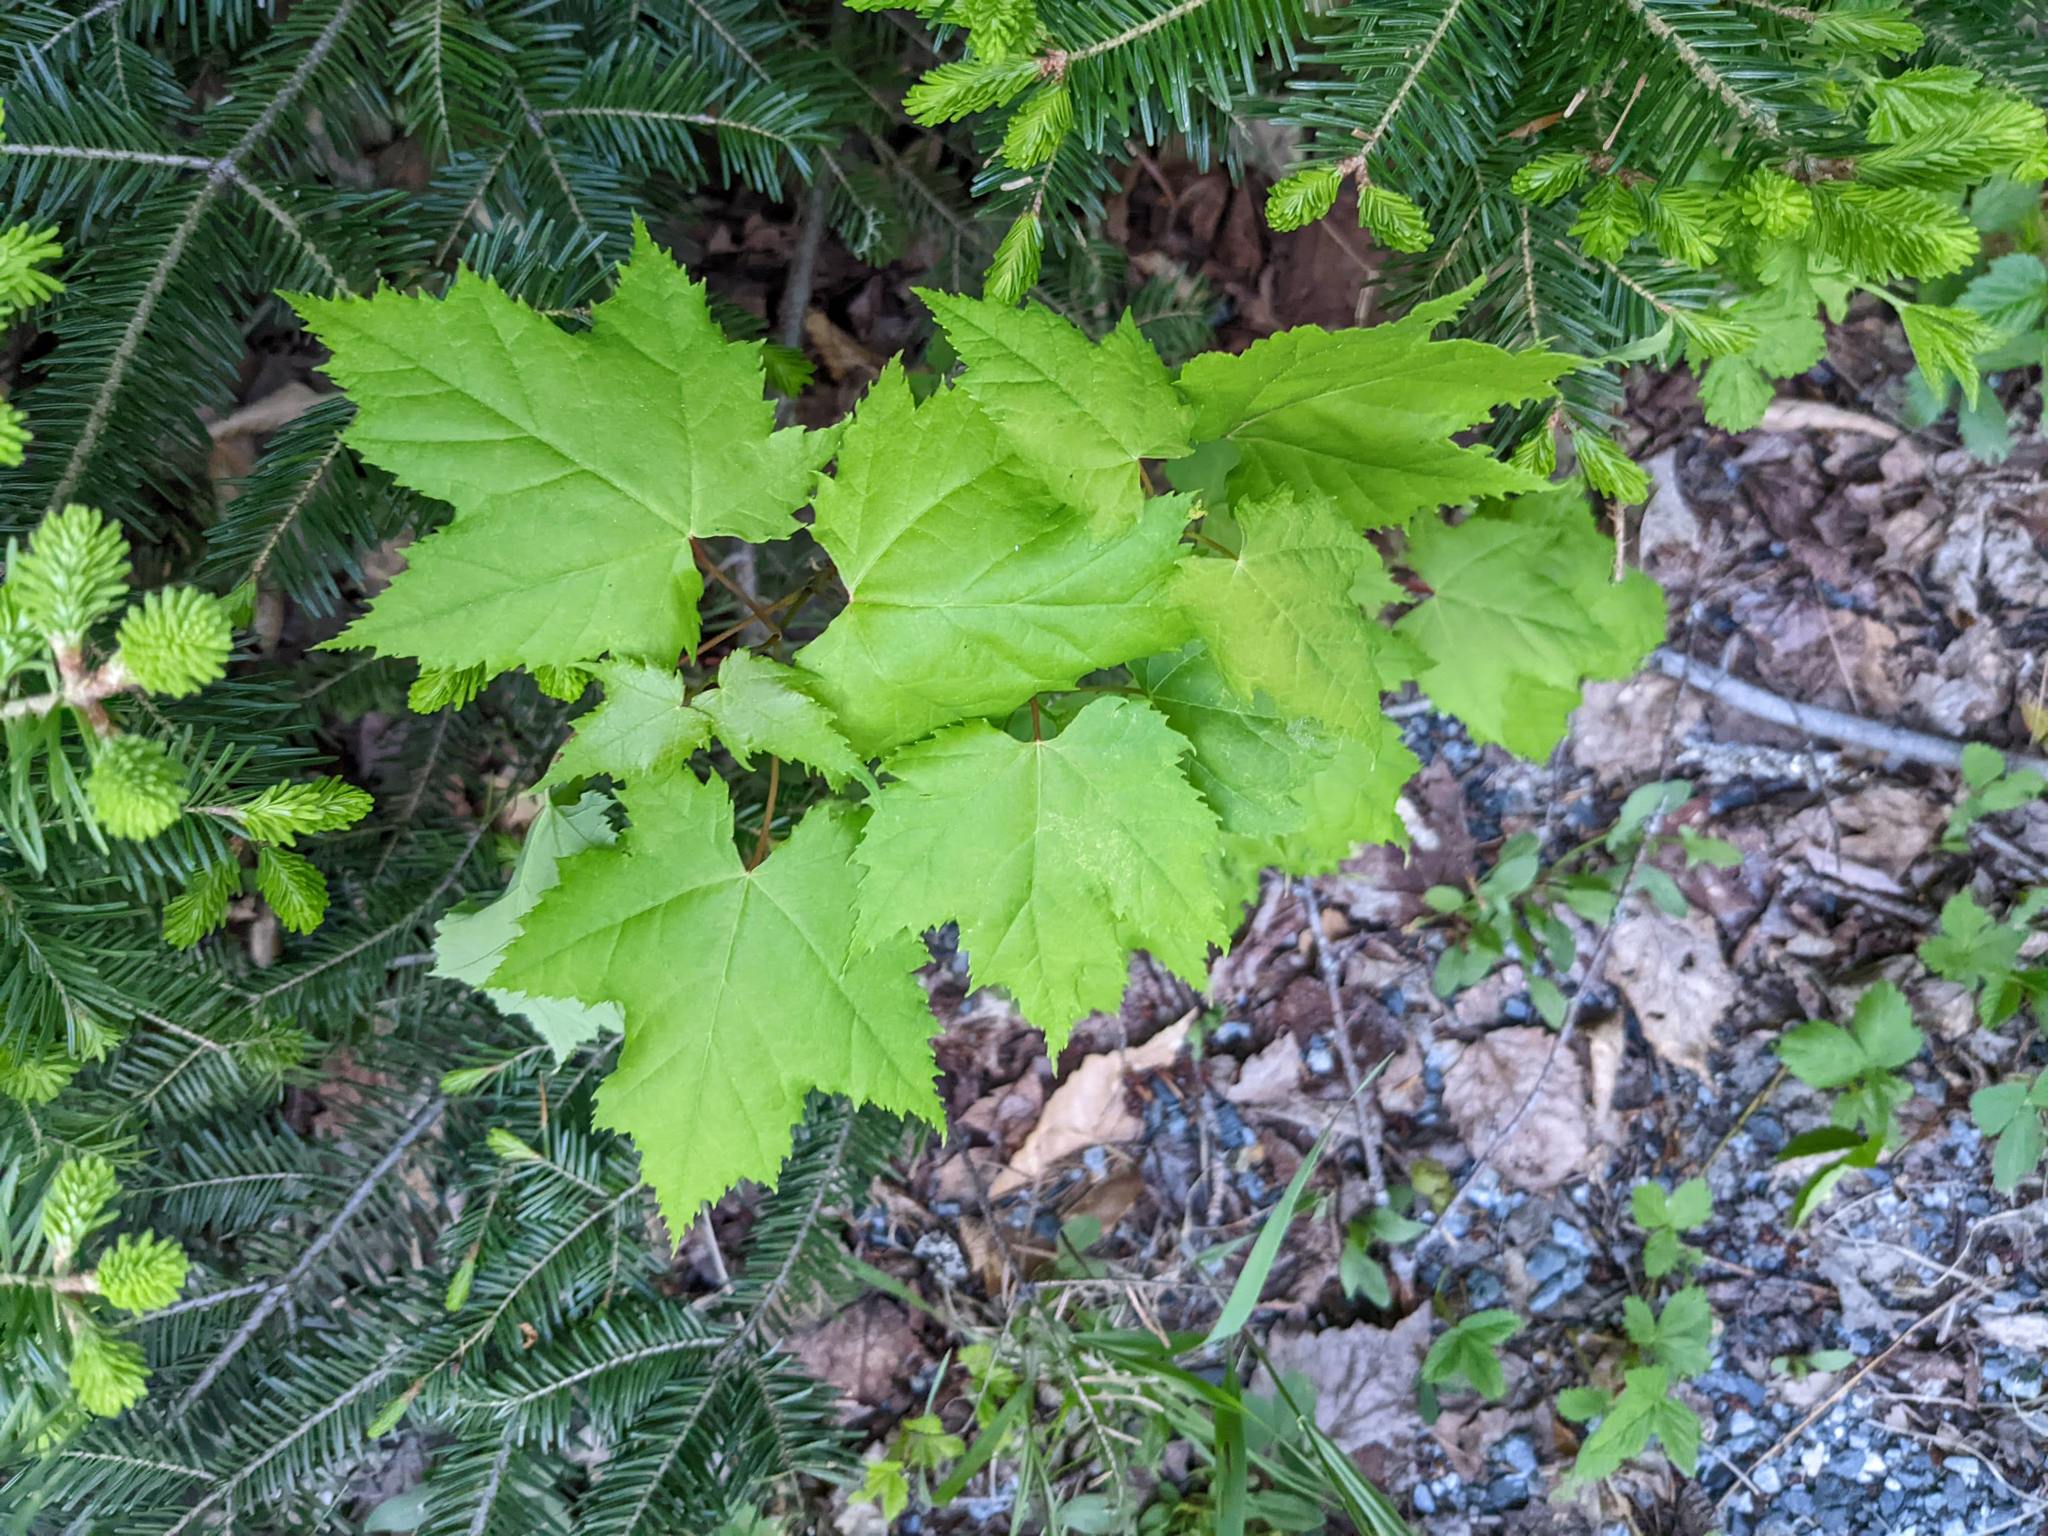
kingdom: Plantae
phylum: Tracheophyta
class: Magnoliopsida
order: Sapindales
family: Sapindaceae
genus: Acer
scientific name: Acer rubrum
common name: Red maple
